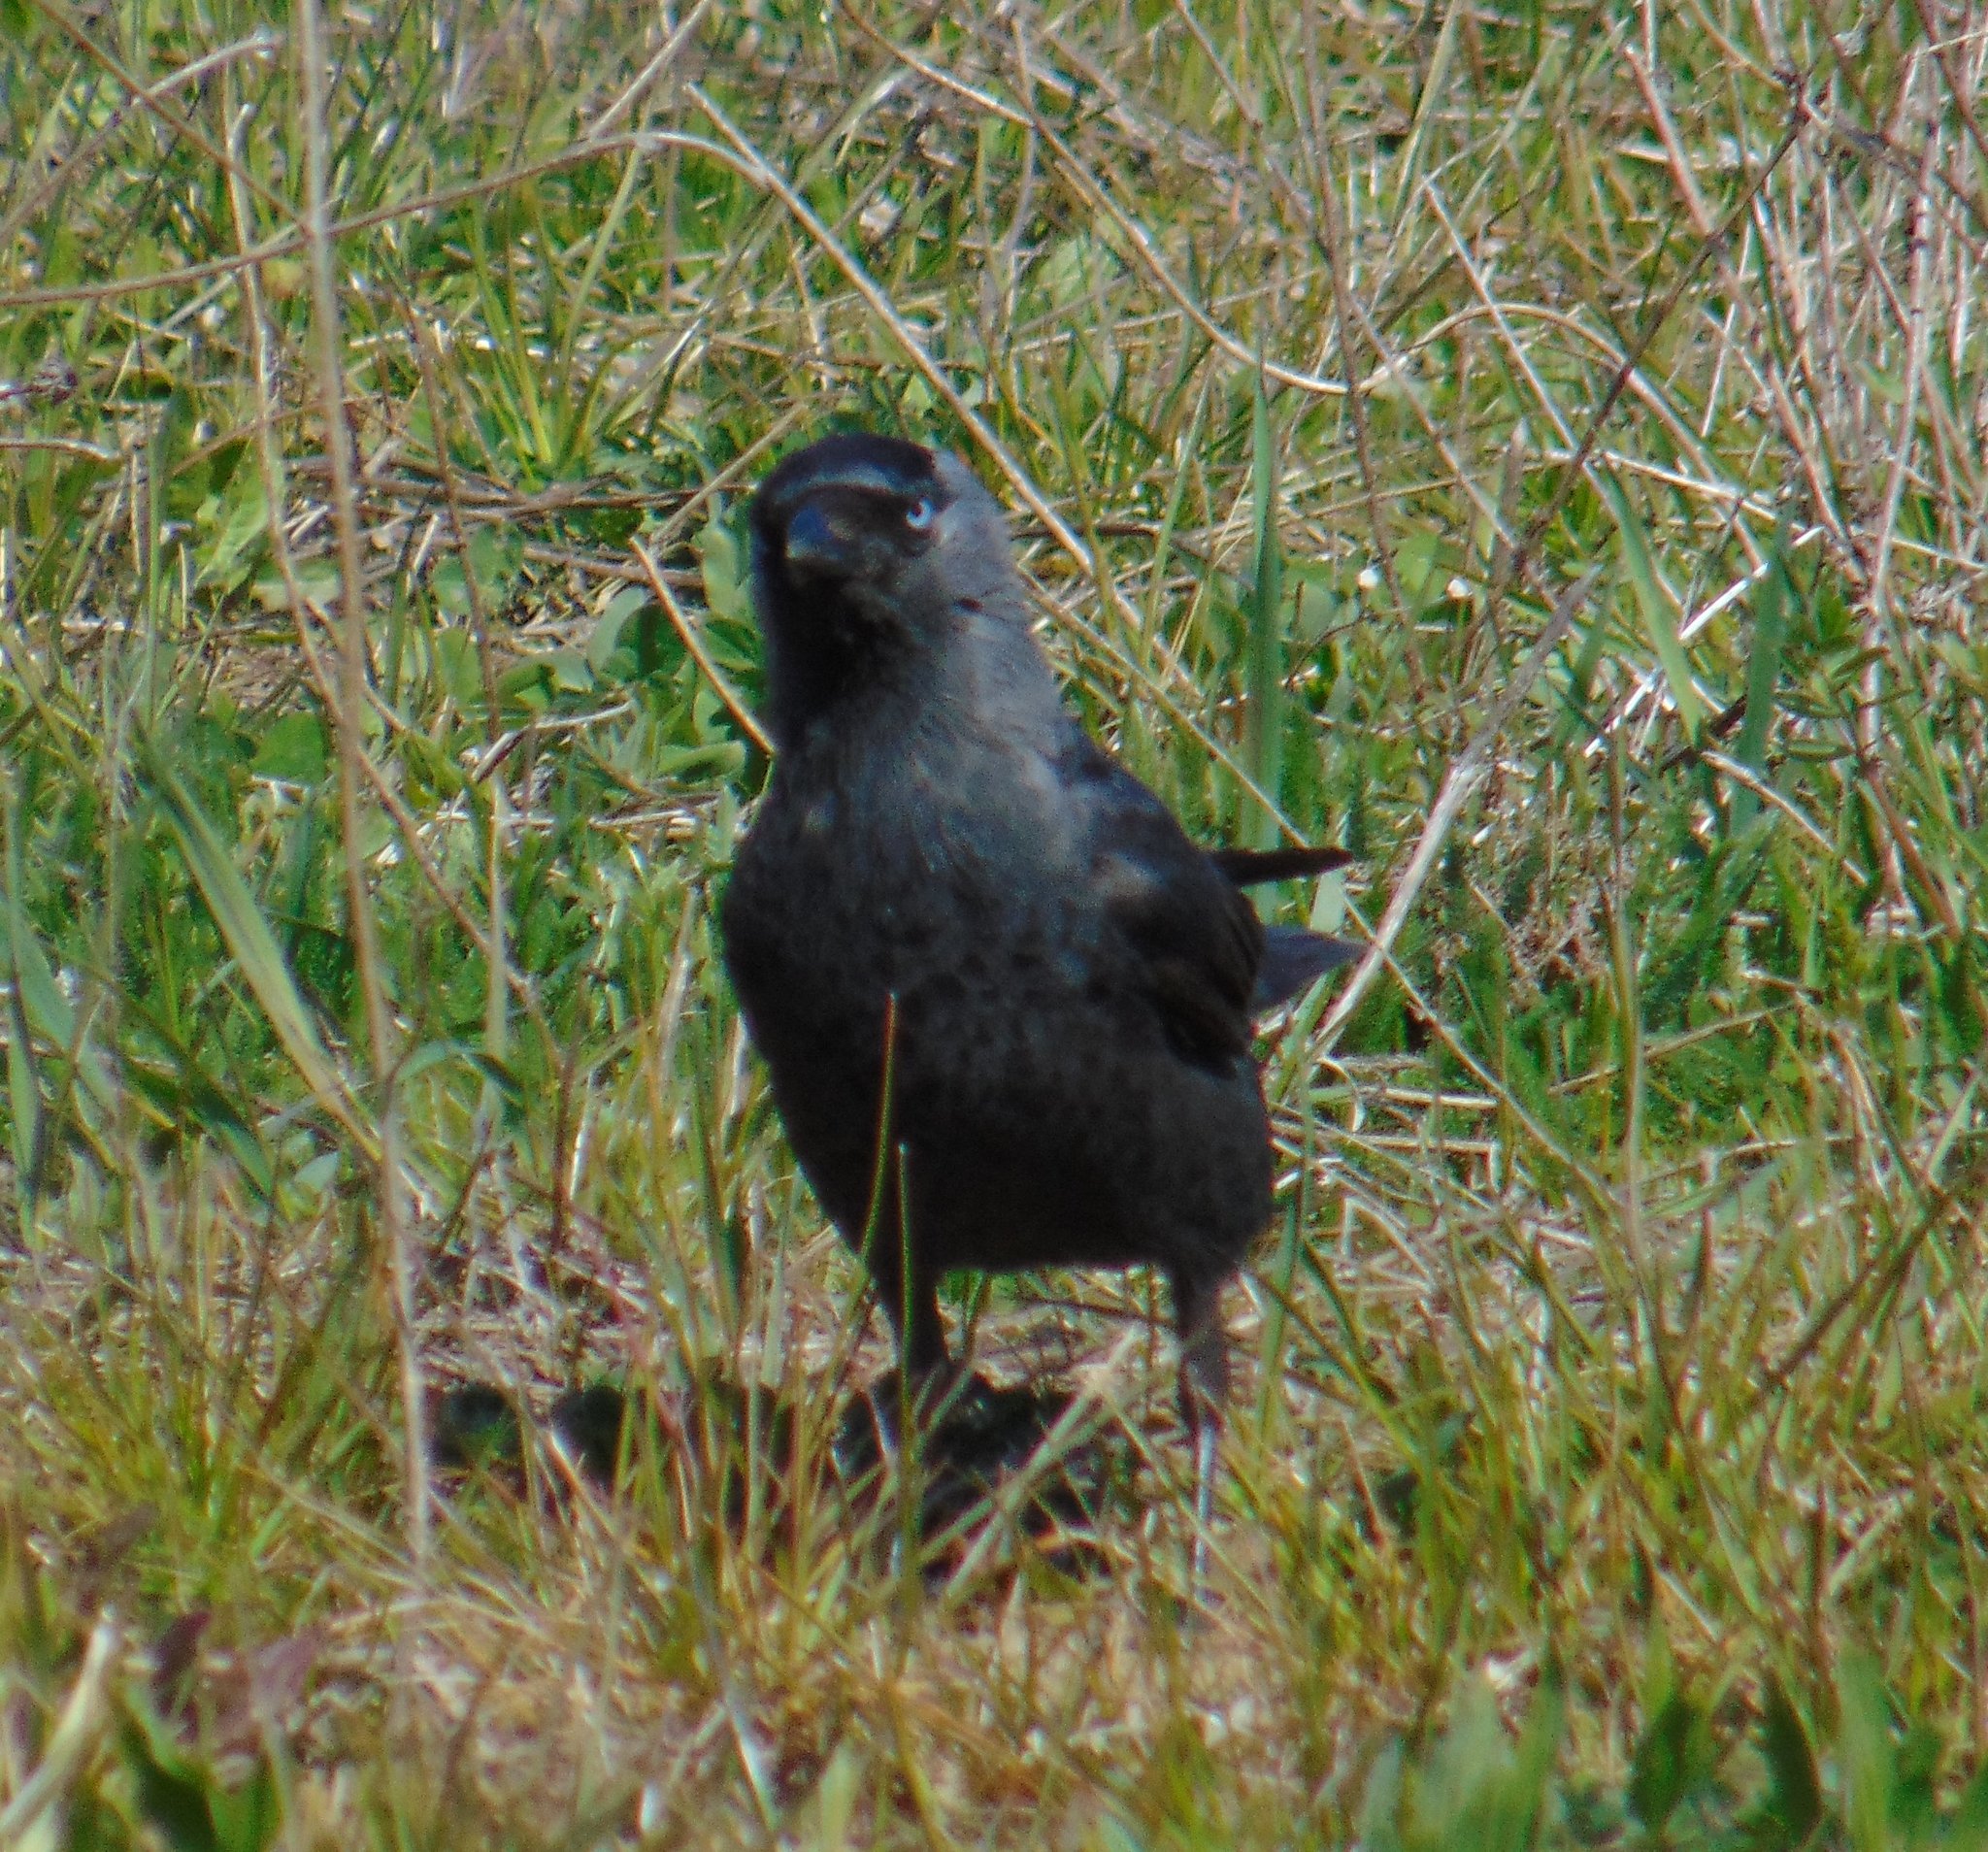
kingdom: Animalia
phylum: Chordata
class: Aves
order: Passeriformes
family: Corvidae
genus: Coloeus
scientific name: Coloeus monedula
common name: Western jackdaw
